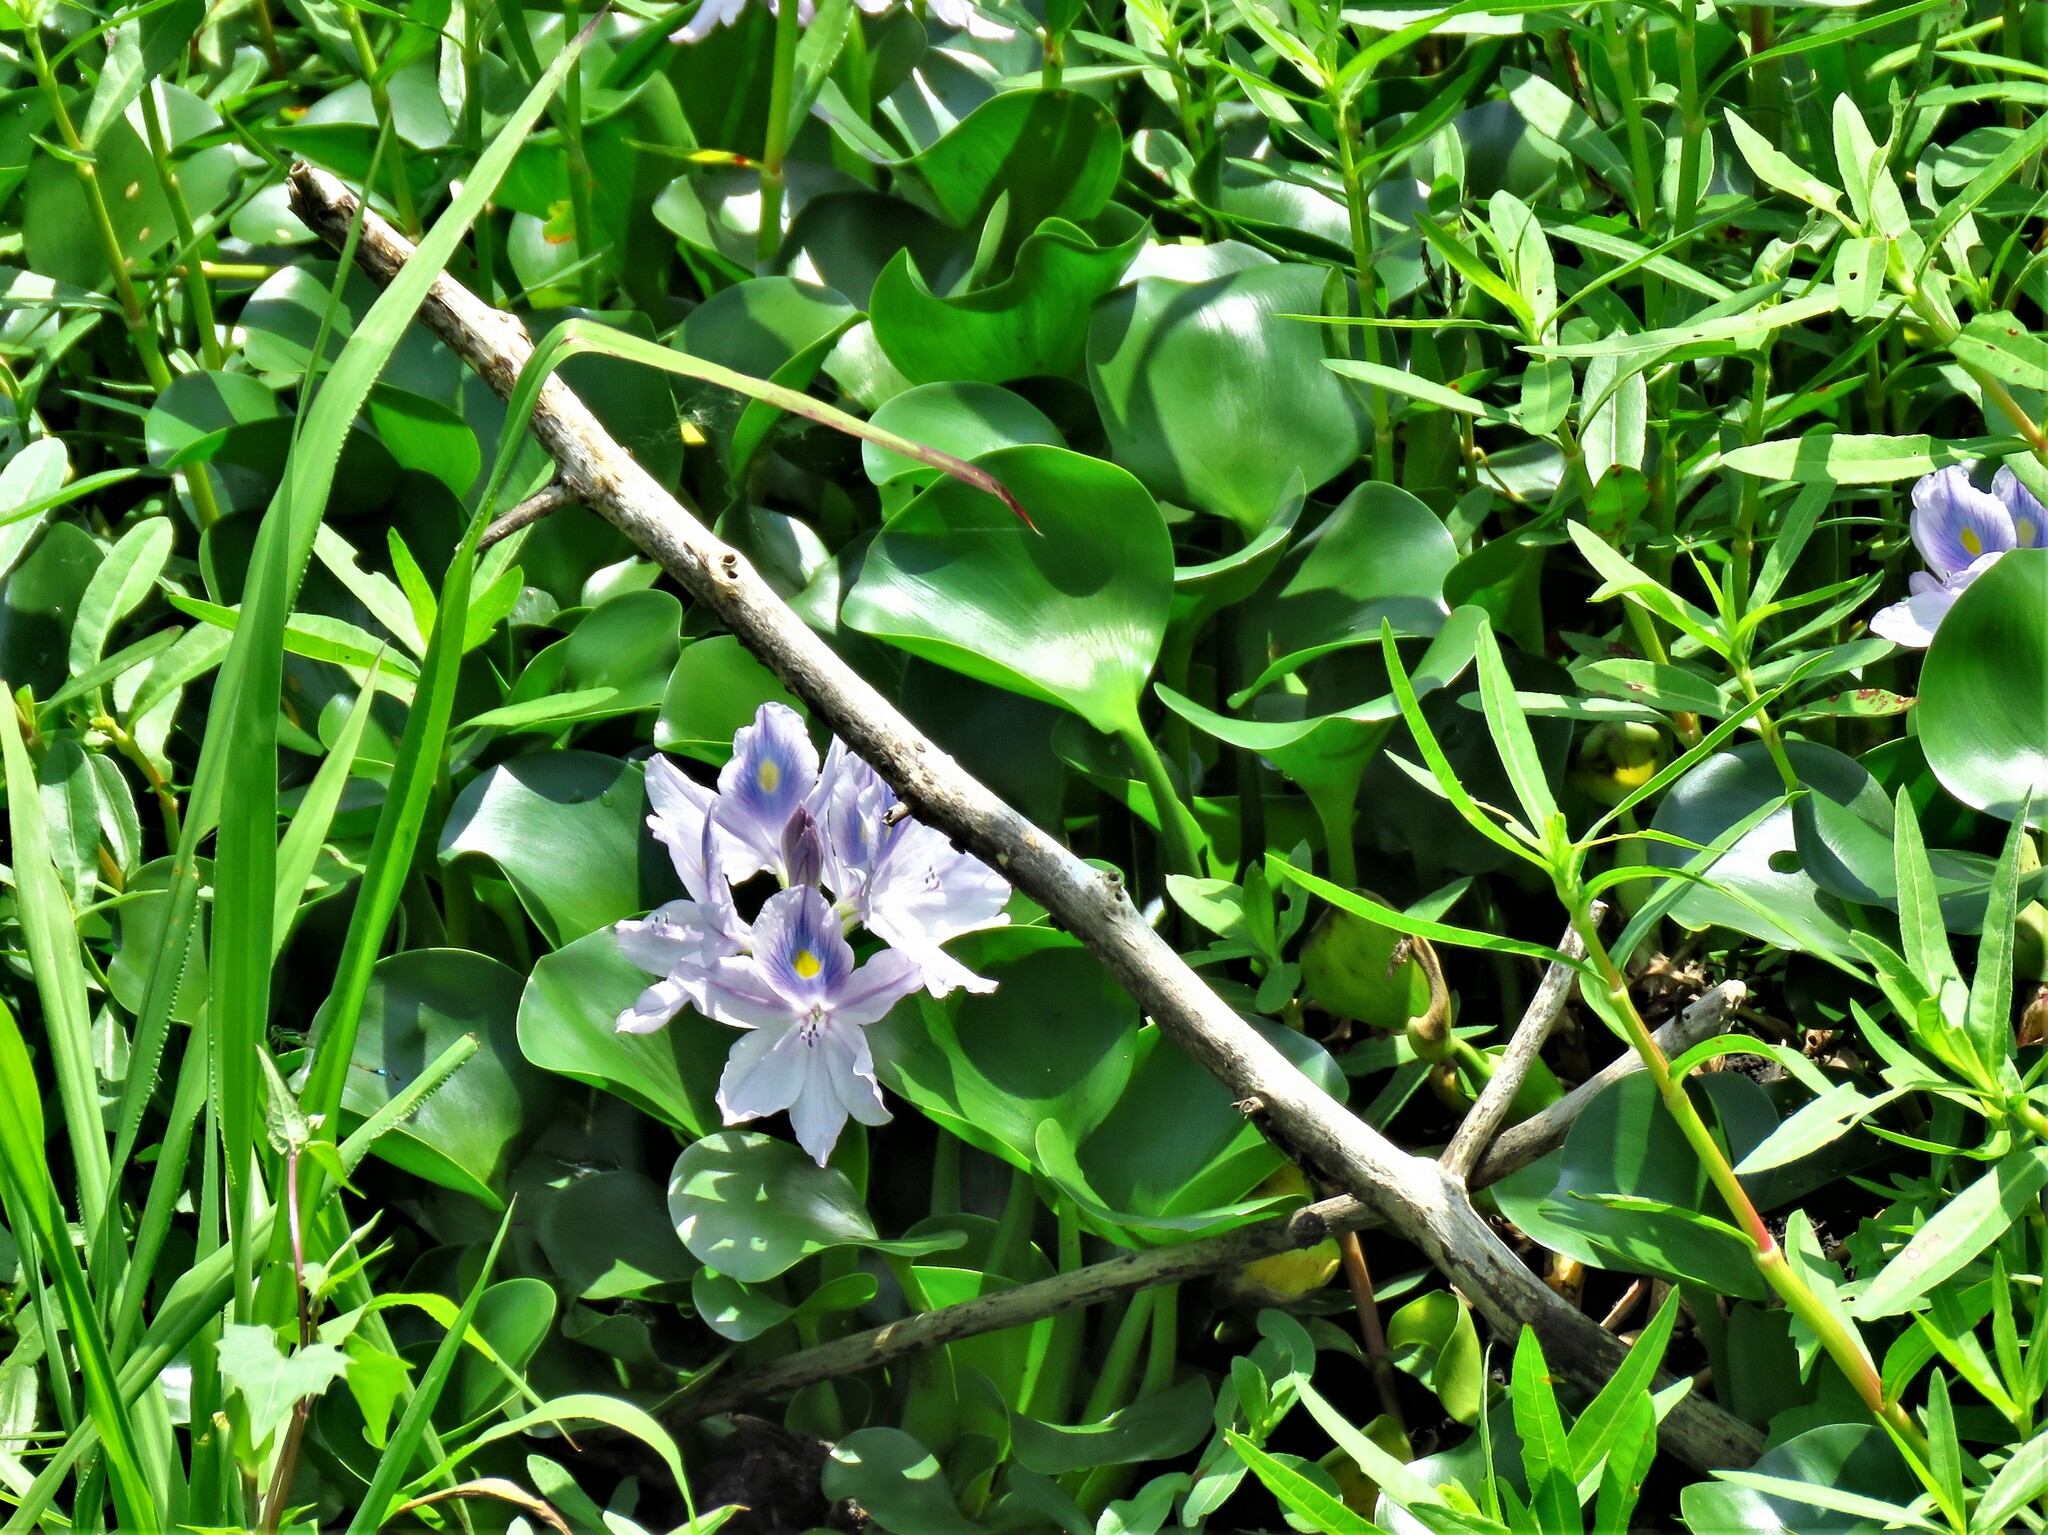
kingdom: Plantae
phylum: Tracheophyta
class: Liliopsida
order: Commelinales
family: Pontederiaceae
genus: Pontederia
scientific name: Pontederia crassipes
